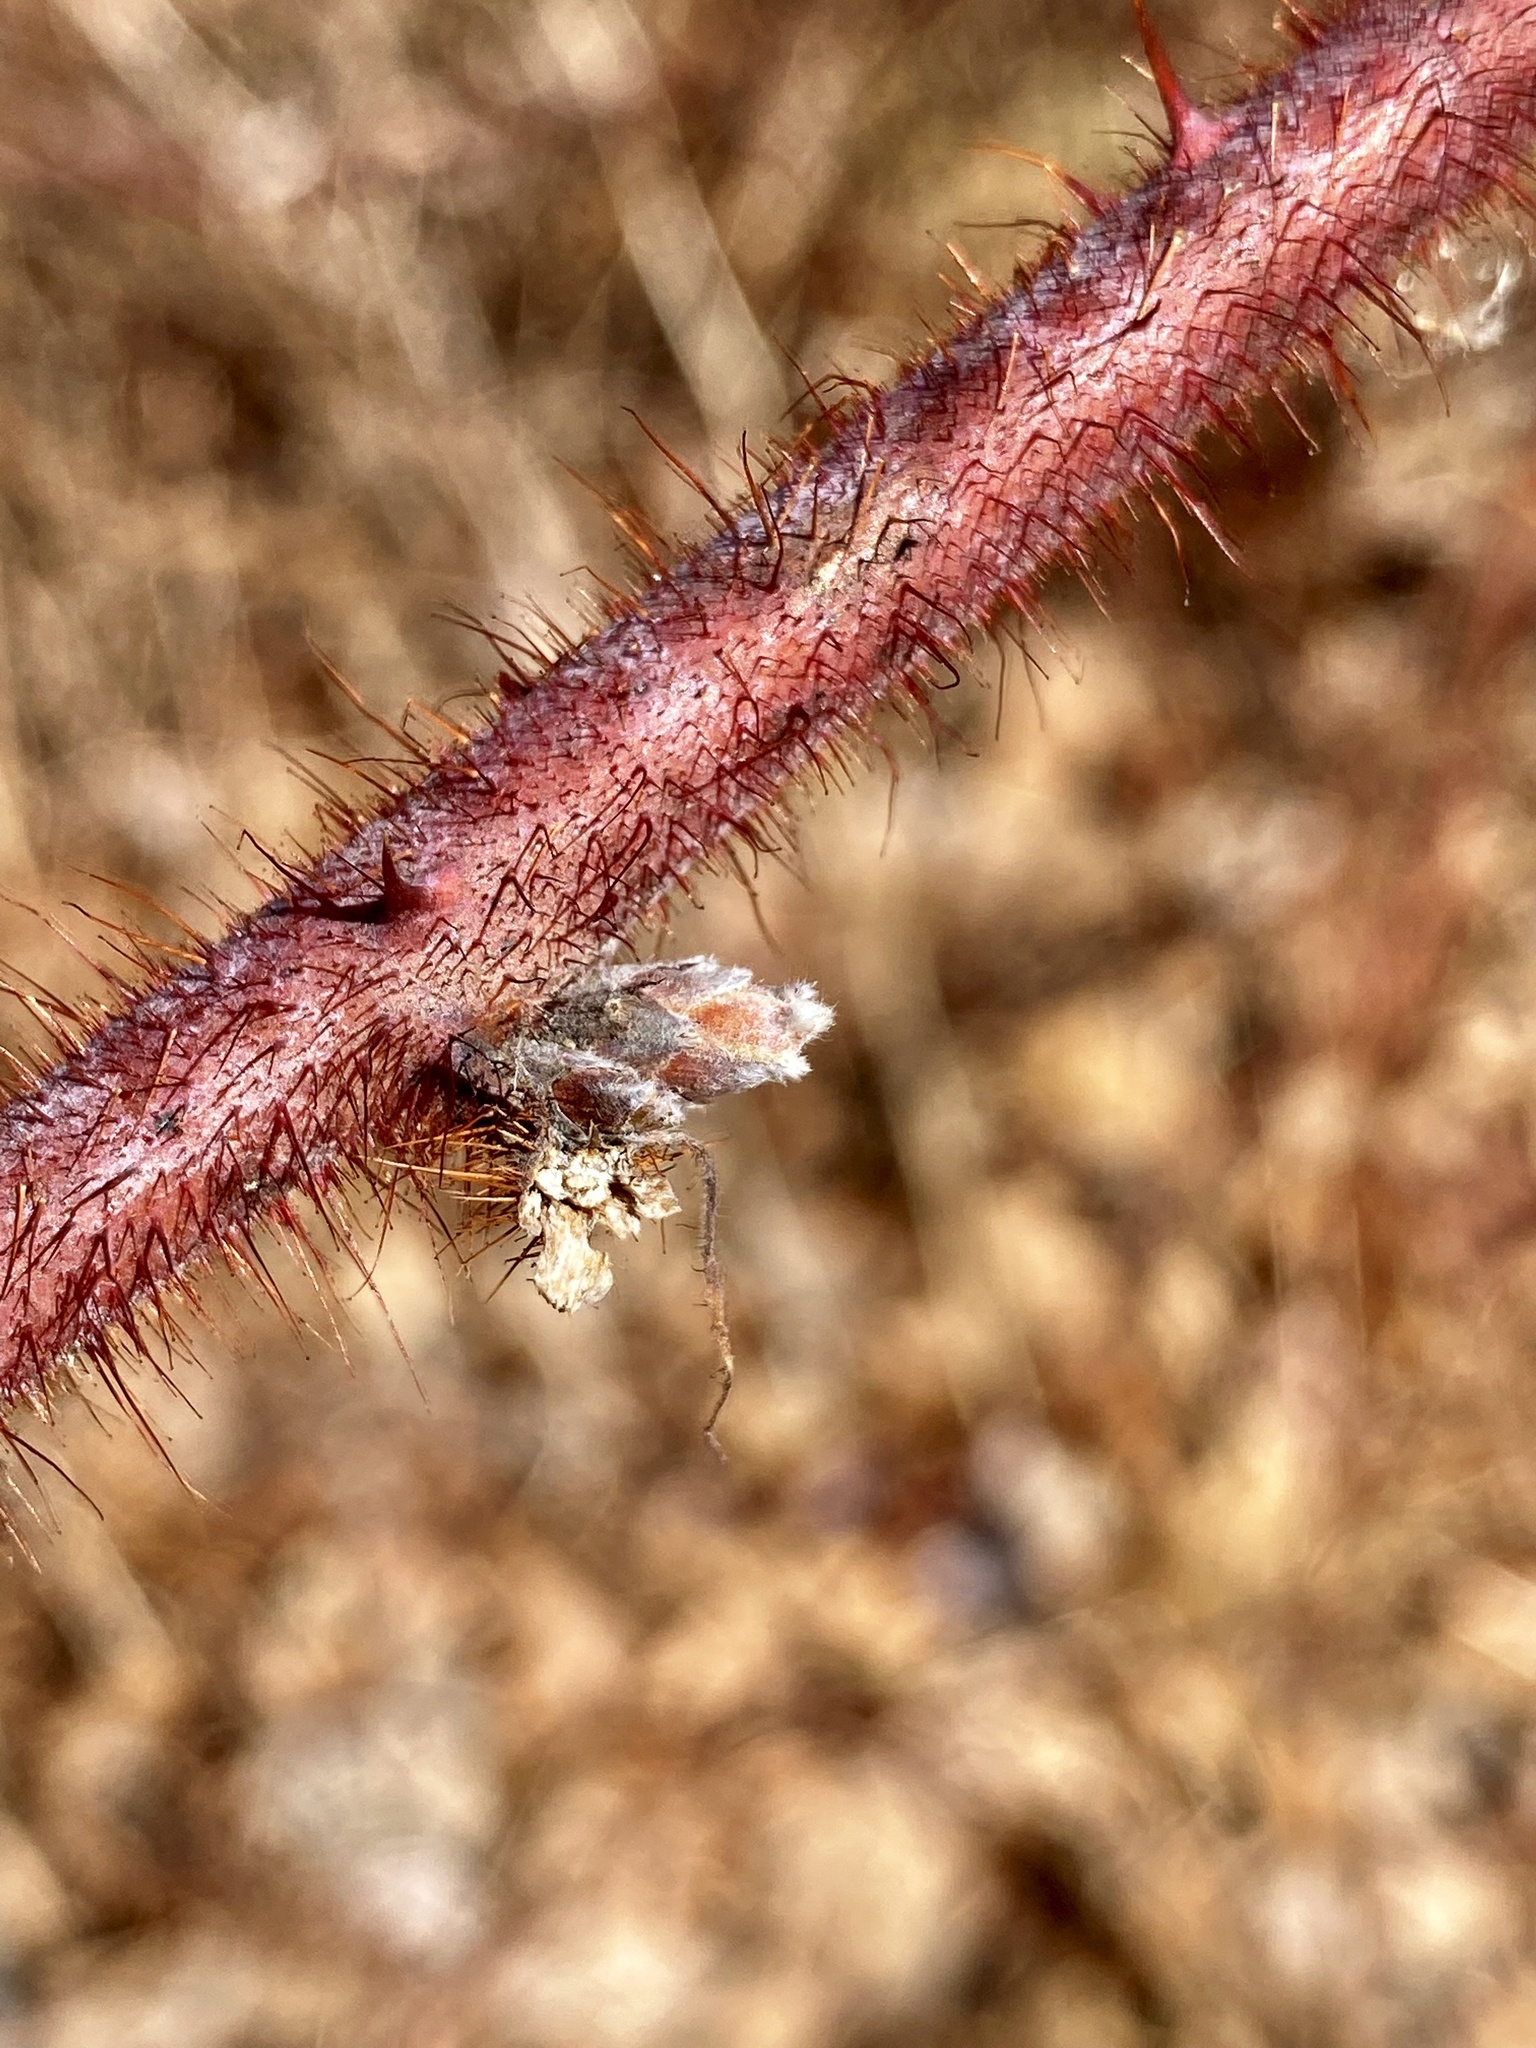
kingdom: Plantae
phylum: Tracheophyta
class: Magnoliopsida
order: Rosales
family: Rosaceae
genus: Rubus
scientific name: Rubus phoenicolasius
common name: Japanese wineberry
